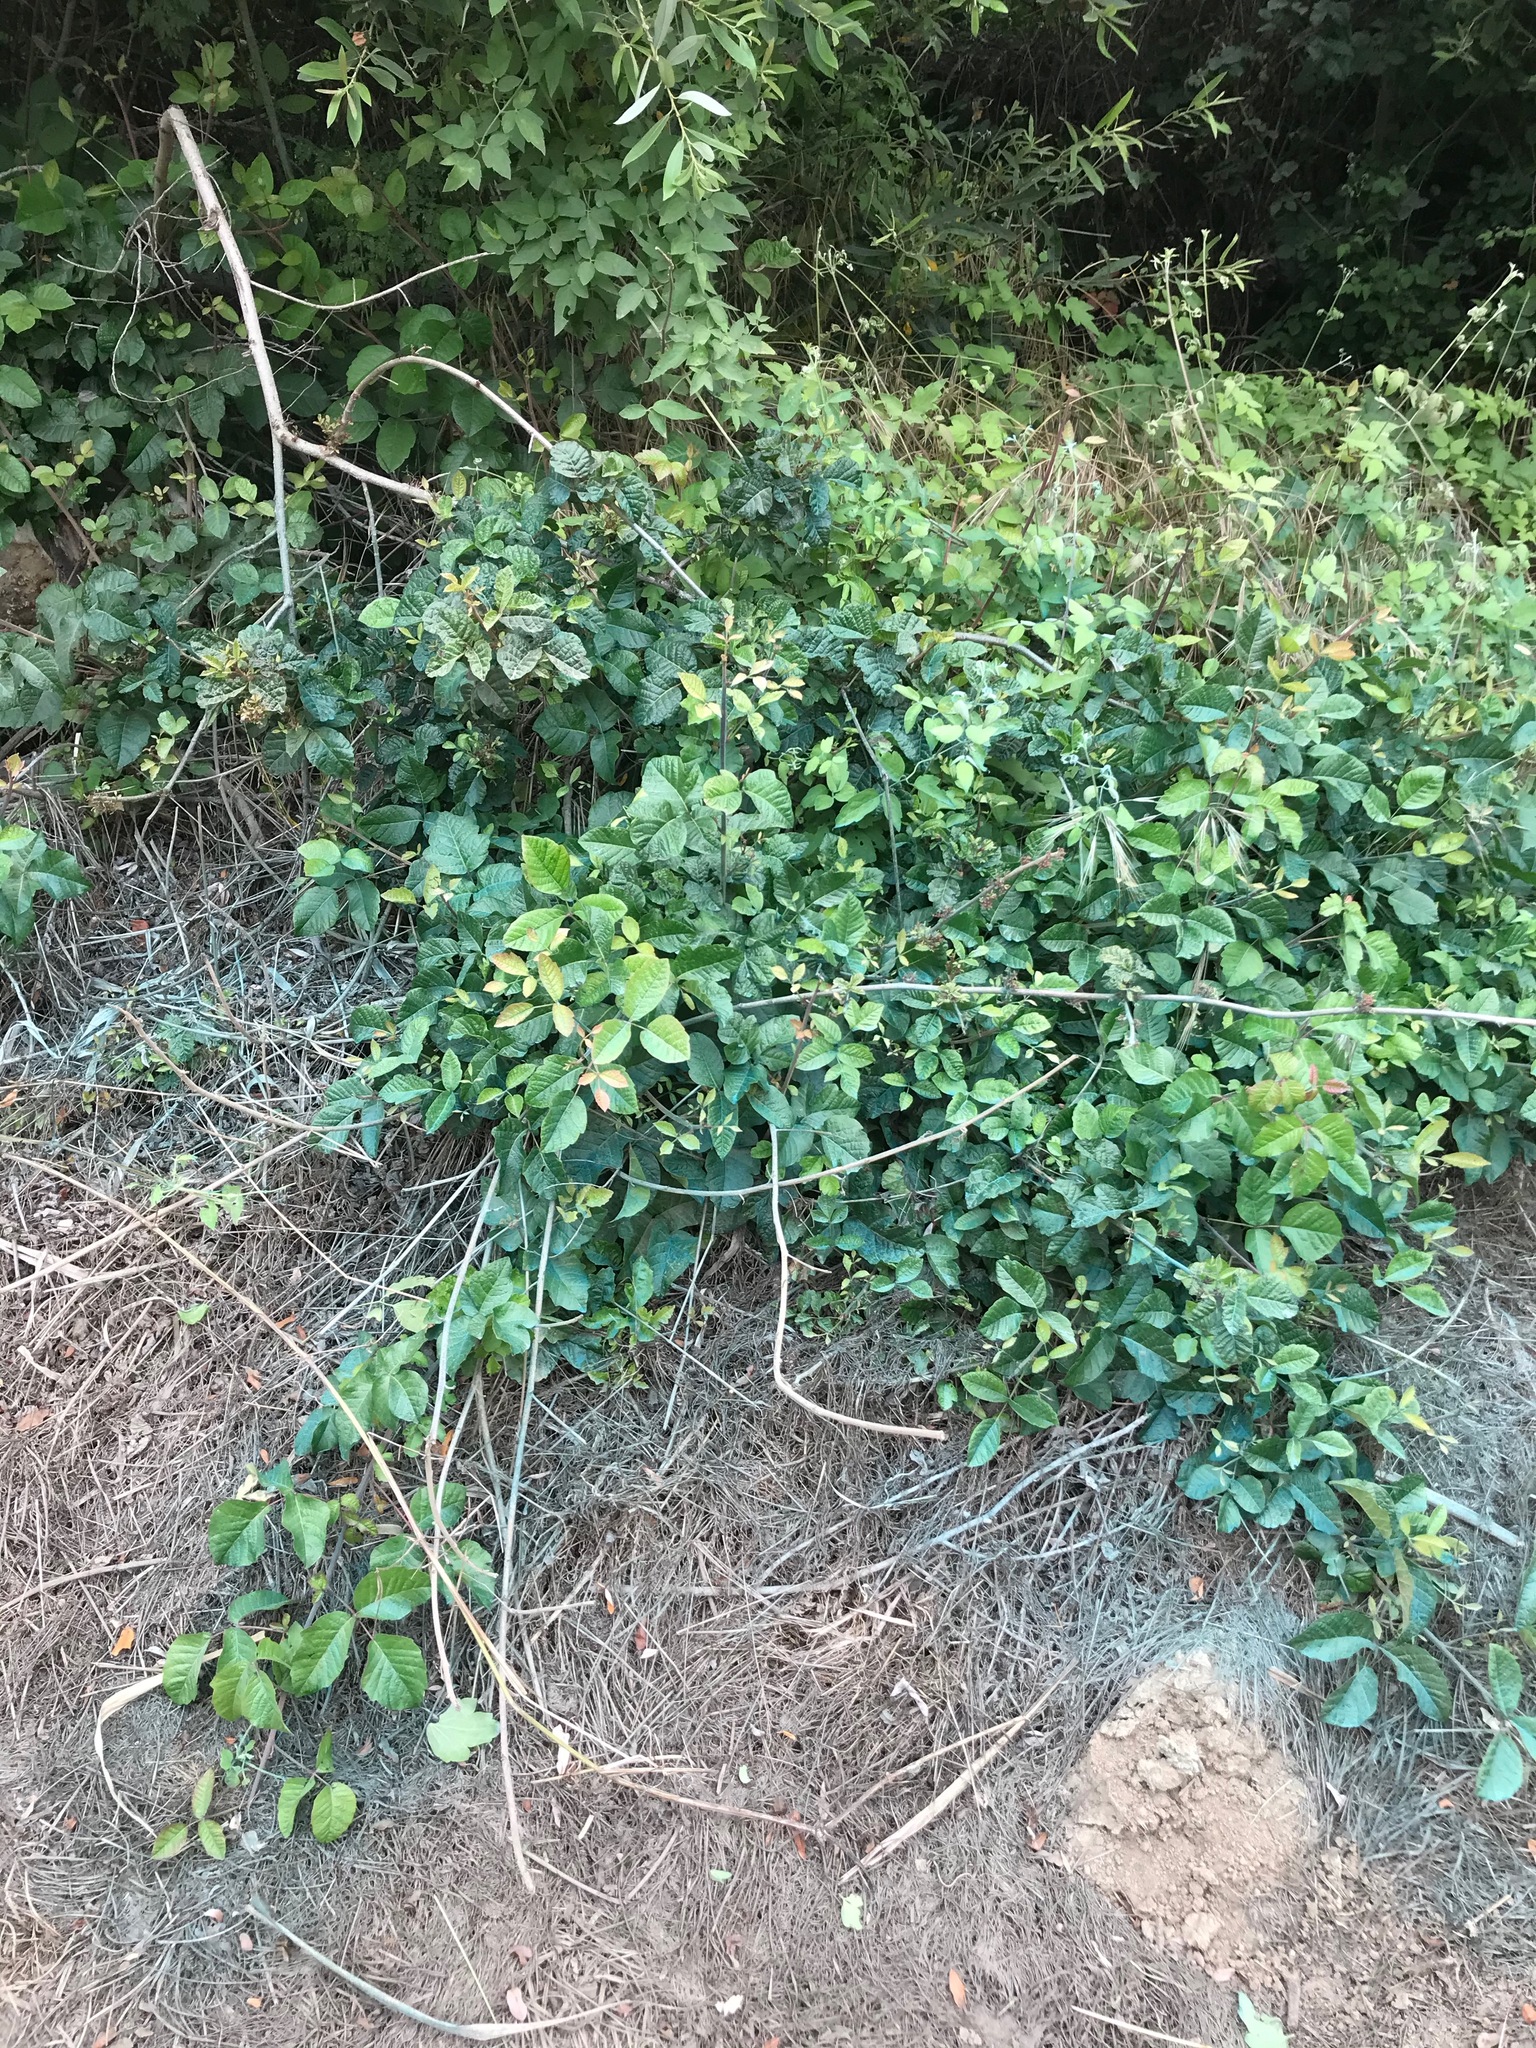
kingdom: Plantae
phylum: Tracheophyta
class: Magnoliopsida
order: Sapindales
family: Anacardiaceae
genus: Toxicodendron
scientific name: Toxicodendron diversilobum
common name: Pacific poison-oak
